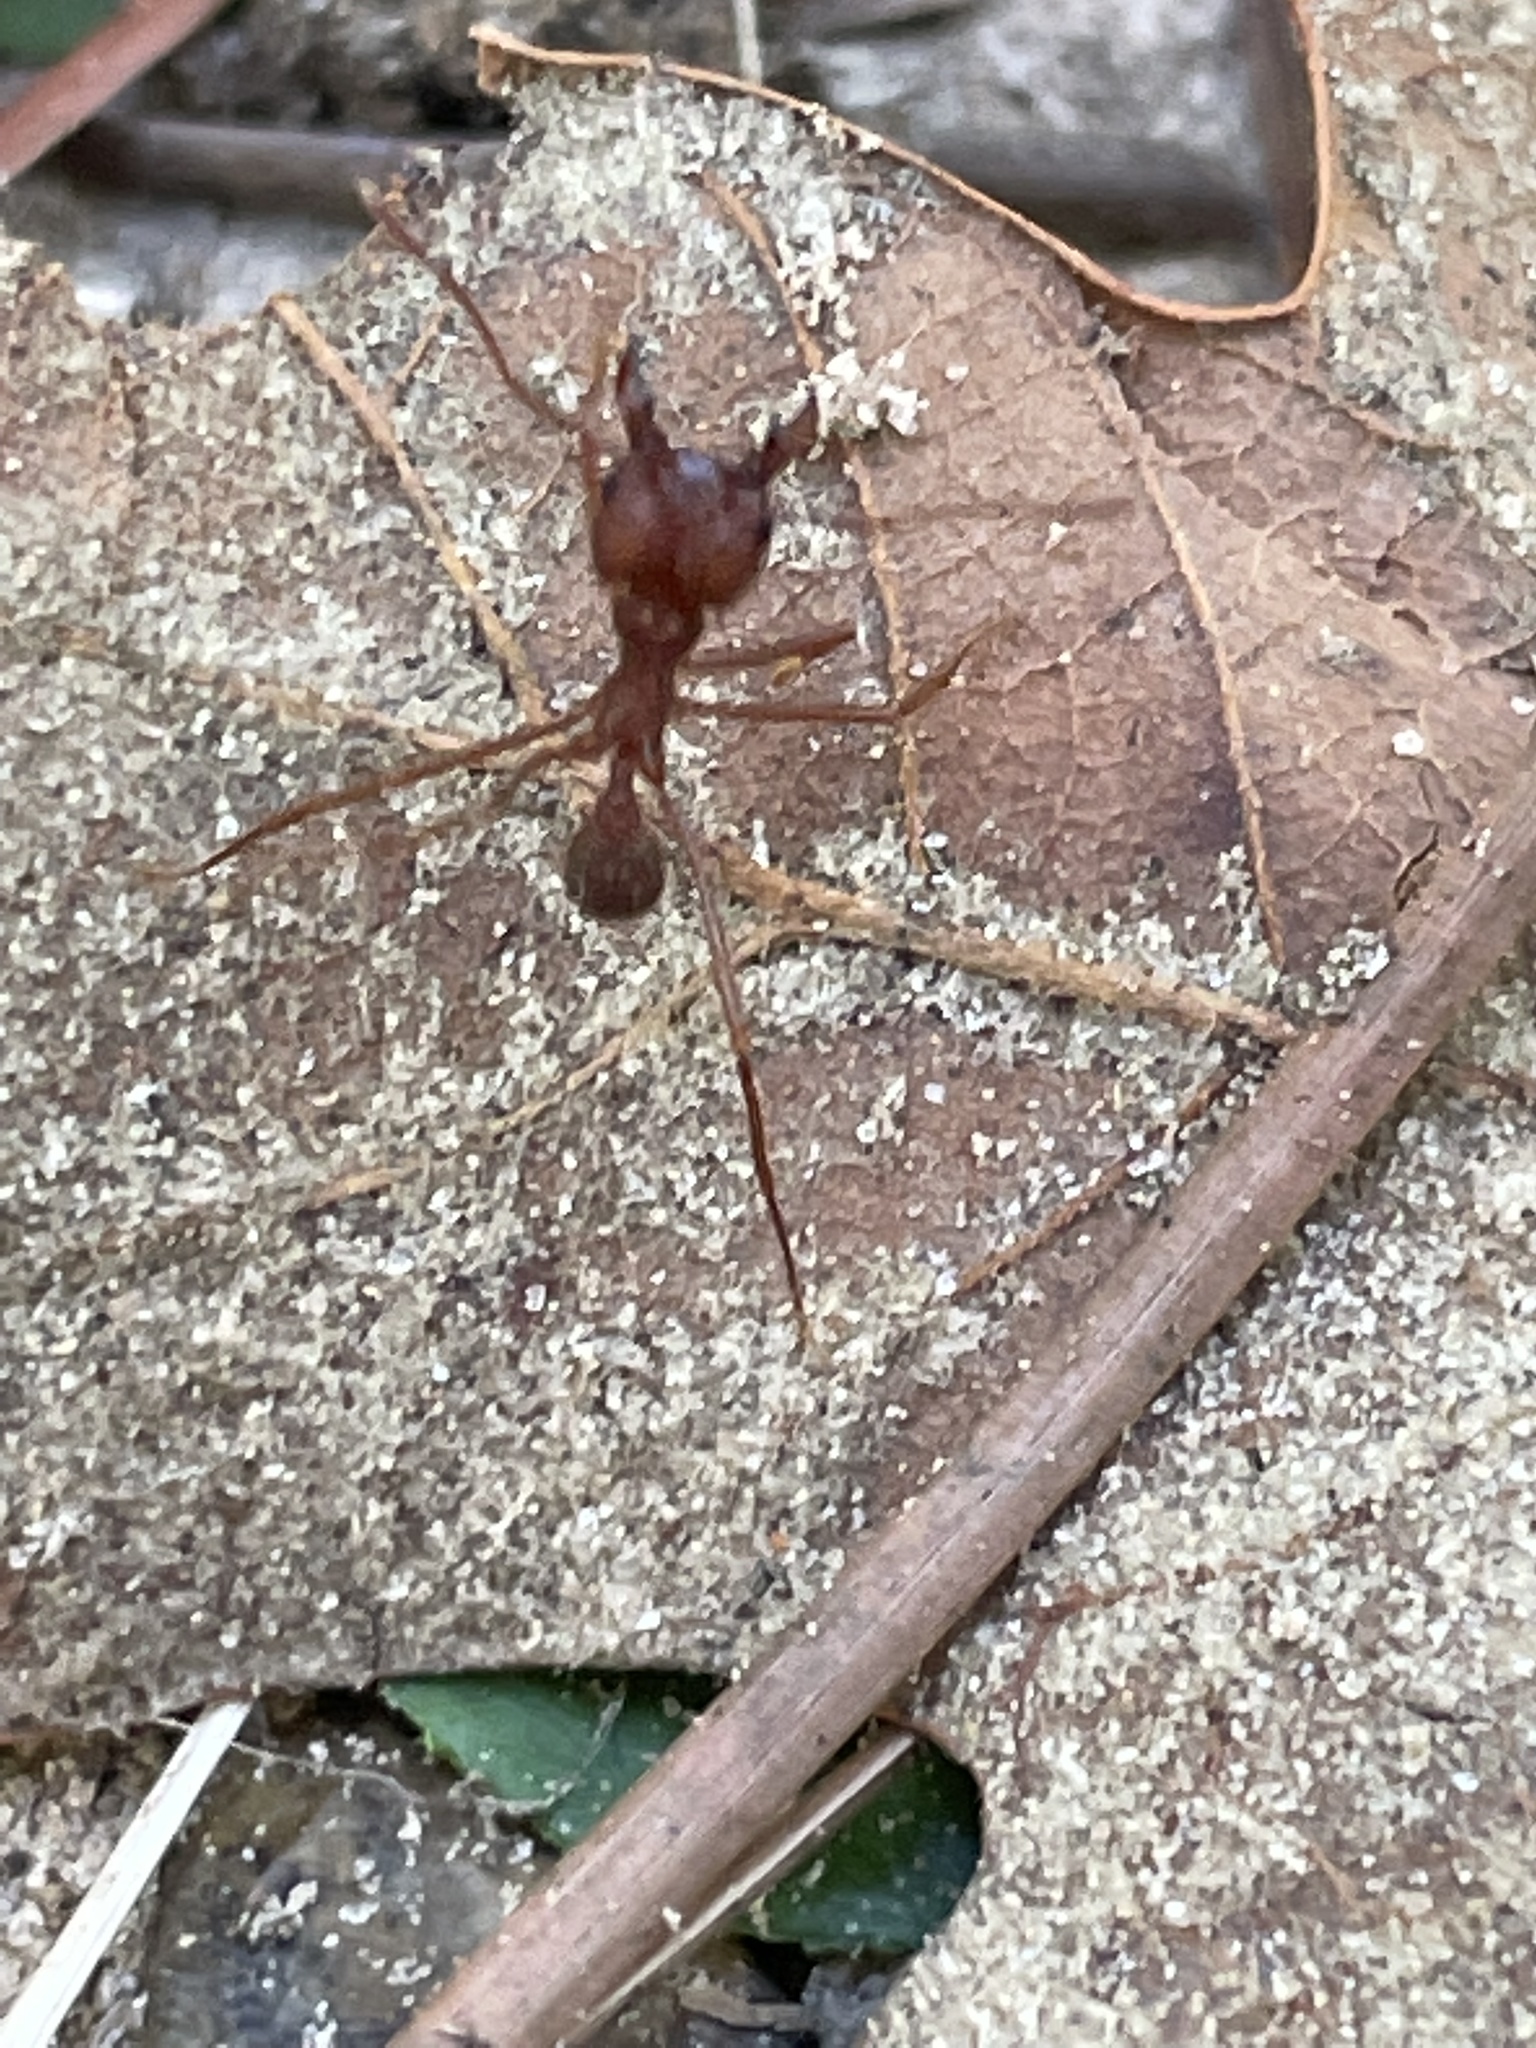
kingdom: Animalia
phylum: Arthropoda
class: Insecta
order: Hymenoptera
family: Formicidae
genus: Atta
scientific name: Atta texana
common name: Texas leafcutting ant
